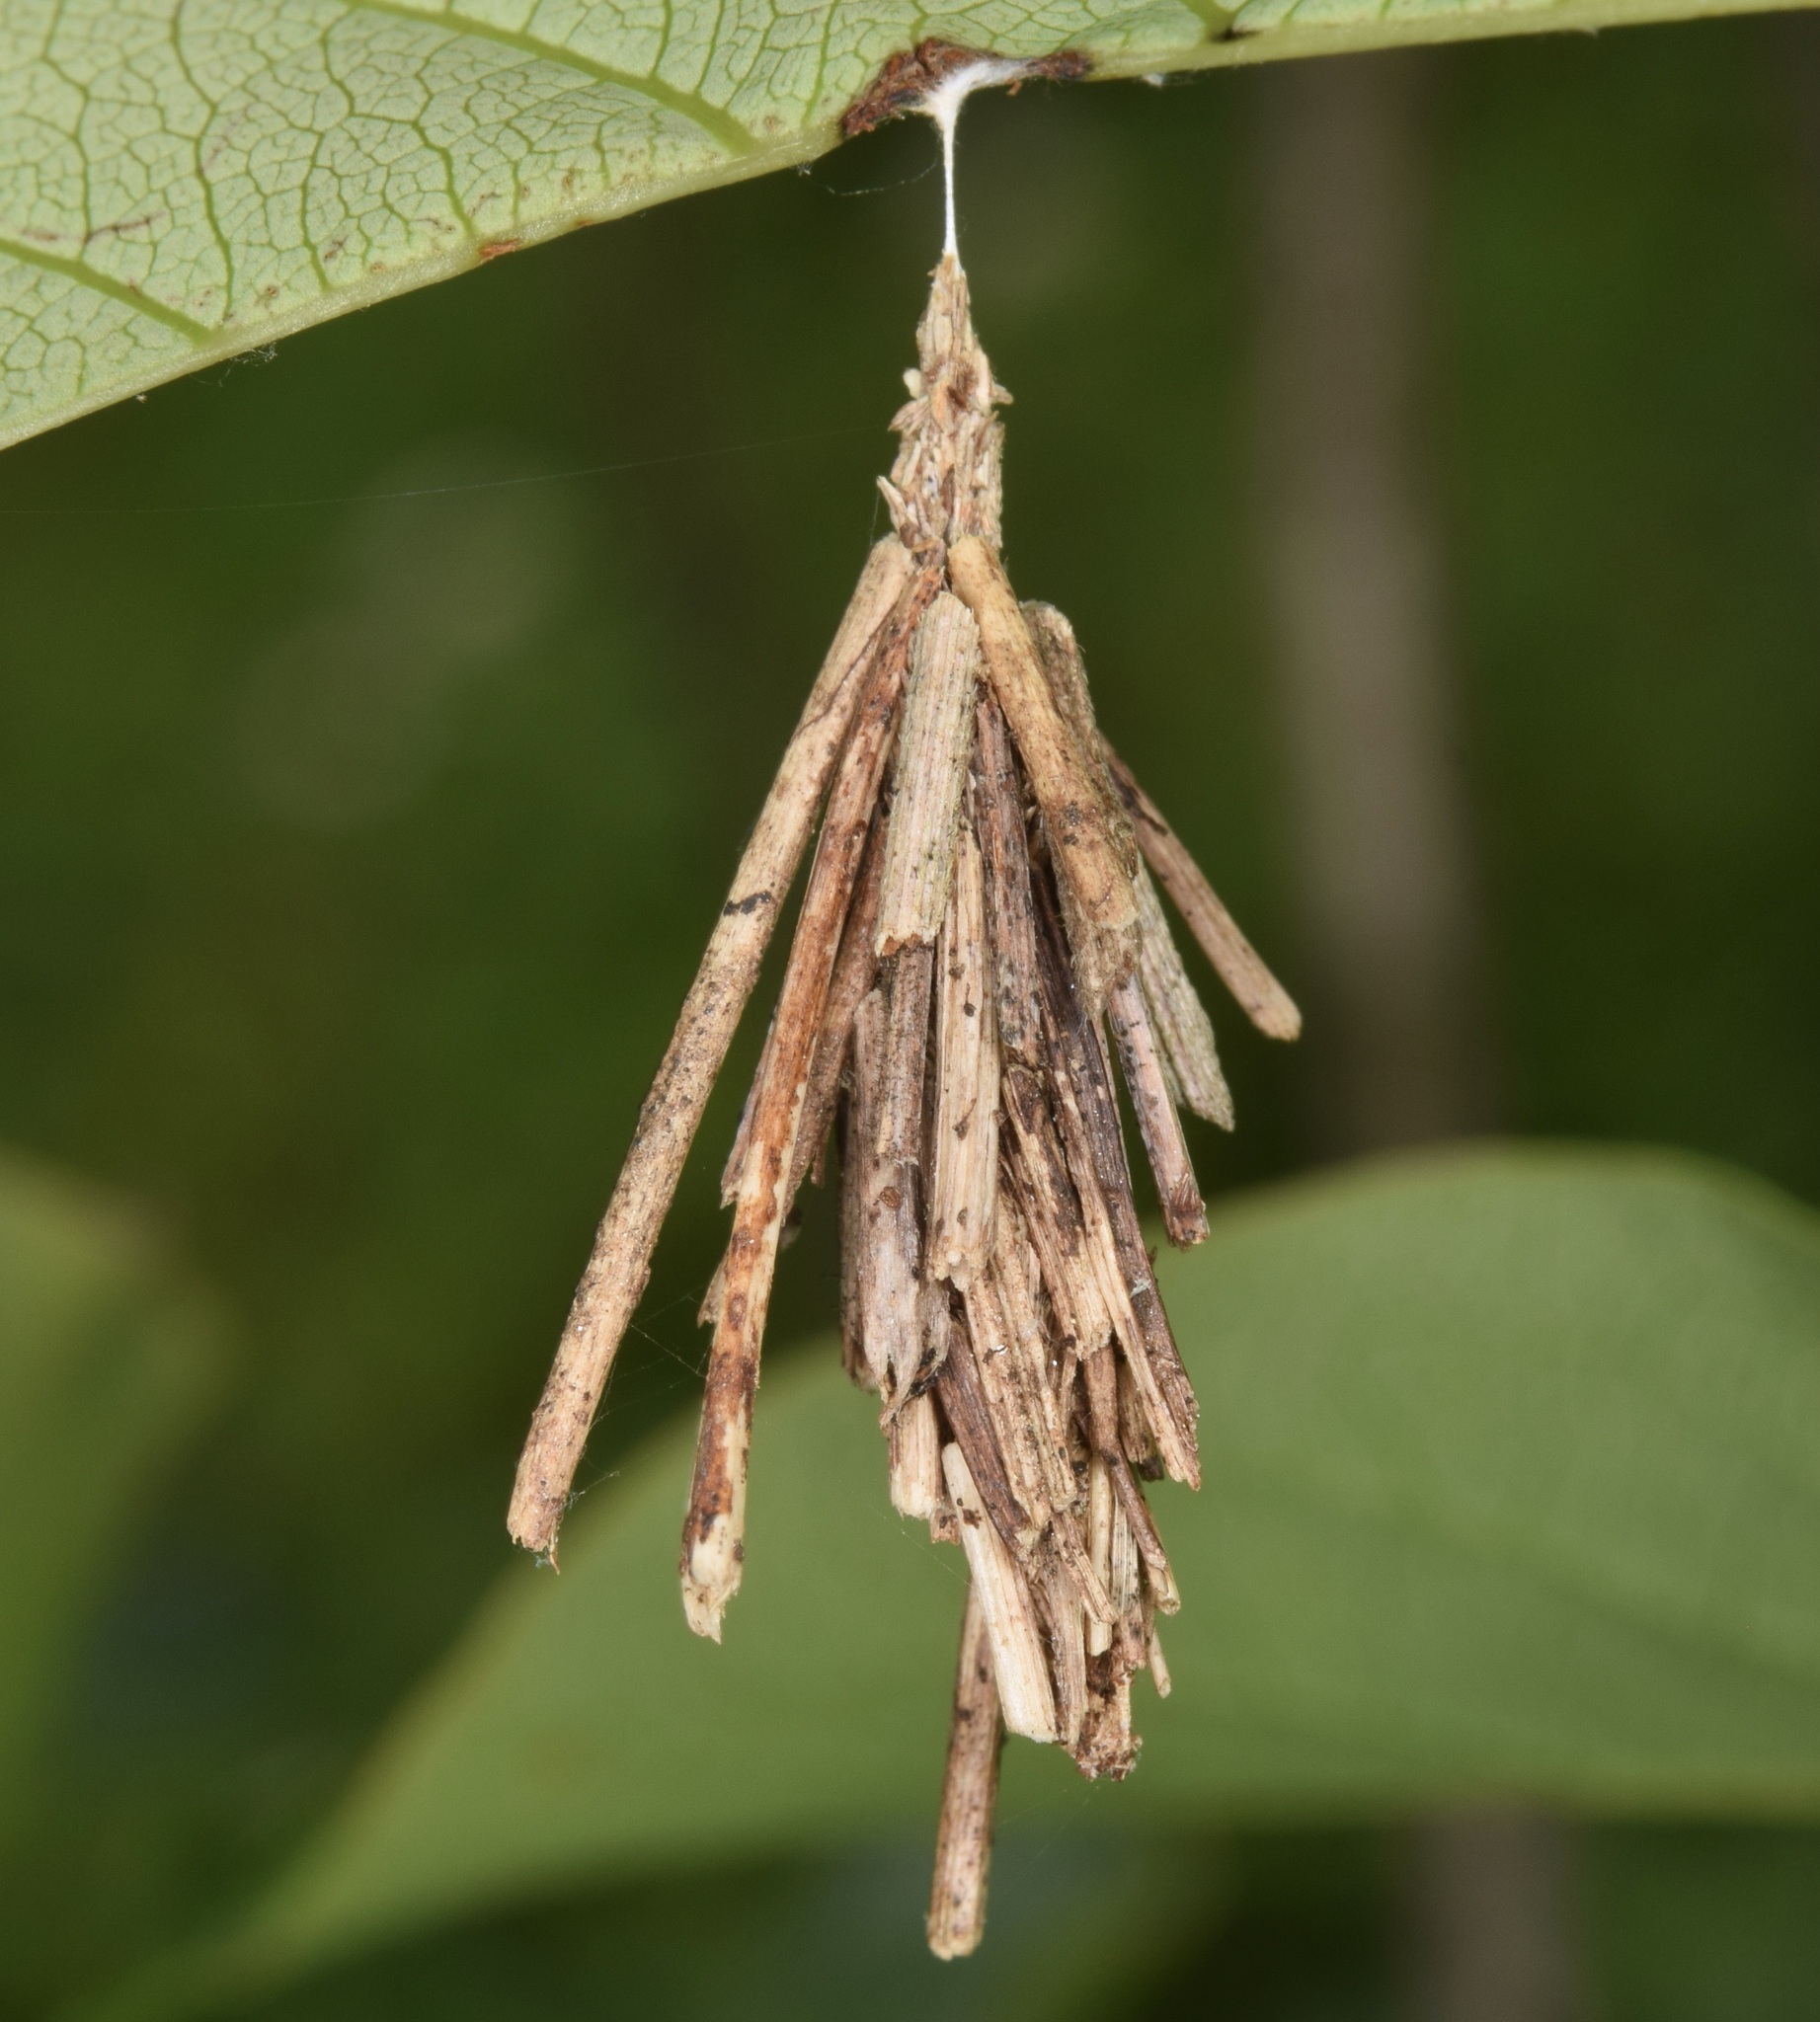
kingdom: Animalia
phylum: Arthropoda
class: Insecta
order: Lepidoptera
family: Psychidae
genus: Psyche
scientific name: Psyche casta
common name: Common sweep
